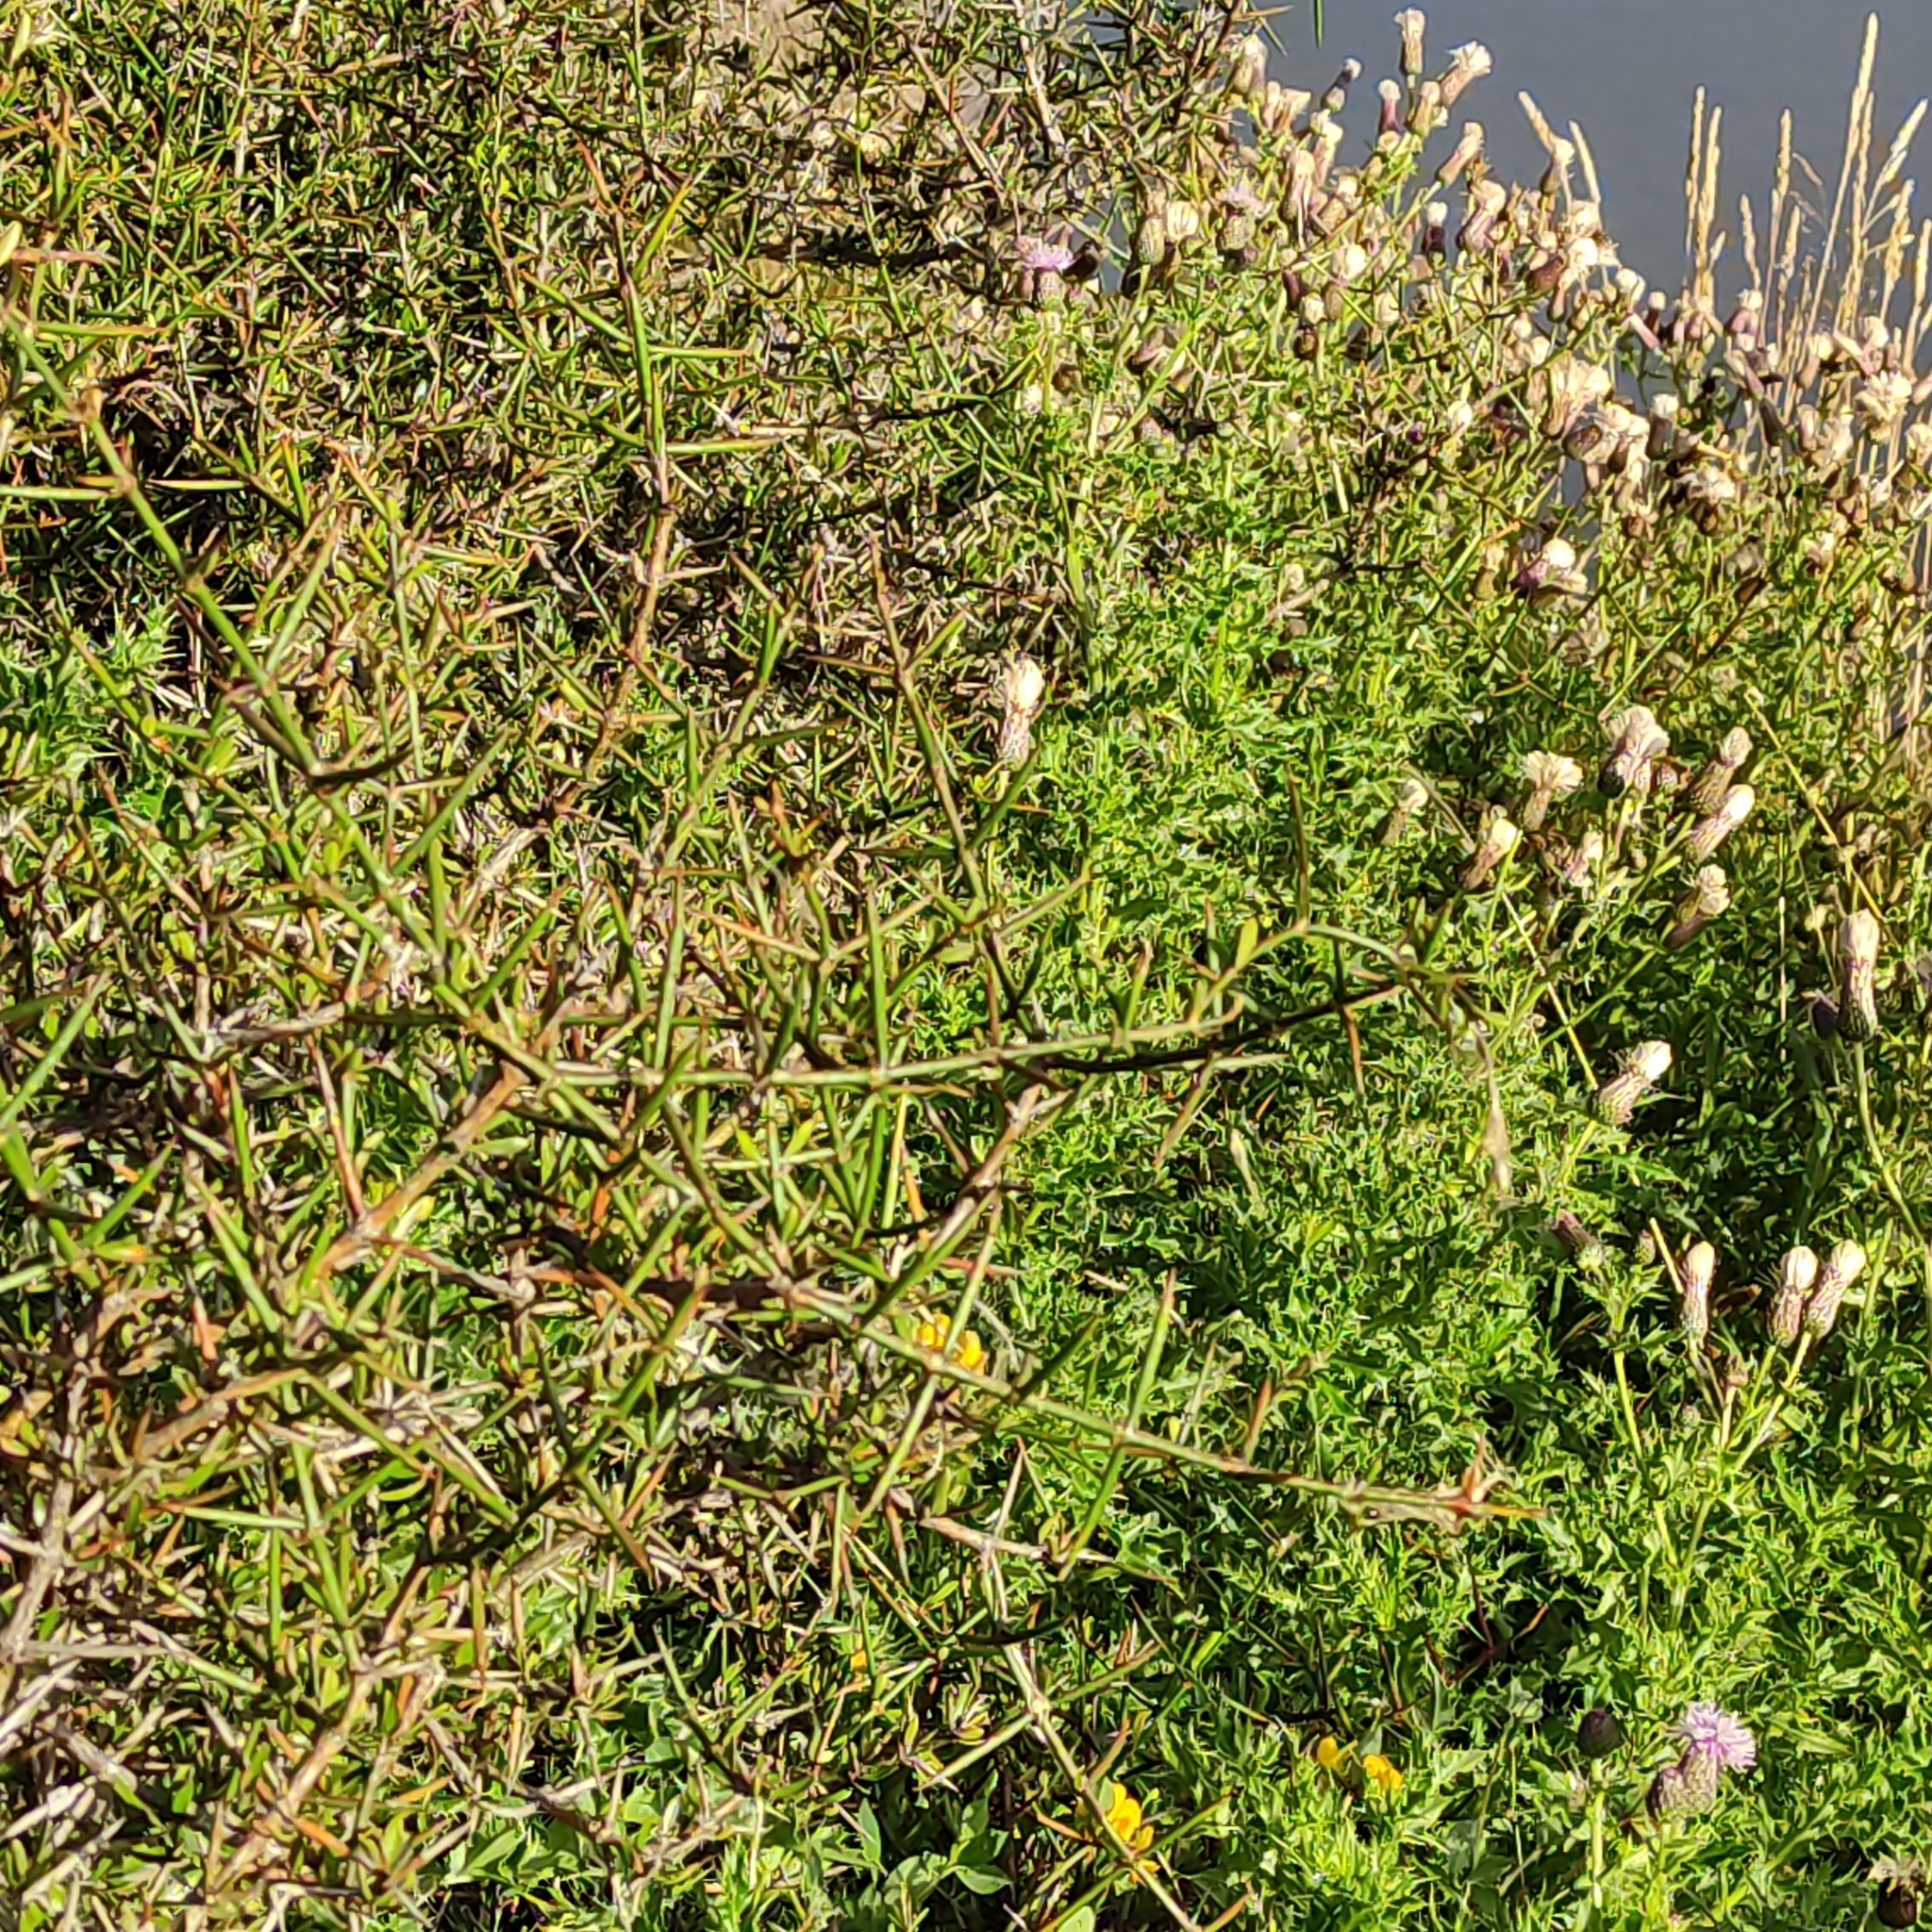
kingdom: Plantae
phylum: Tracheophyta
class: Magnoliopsida
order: Rosales
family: Rhamnaceae
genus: Discaria
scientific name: Discaria toumatou
